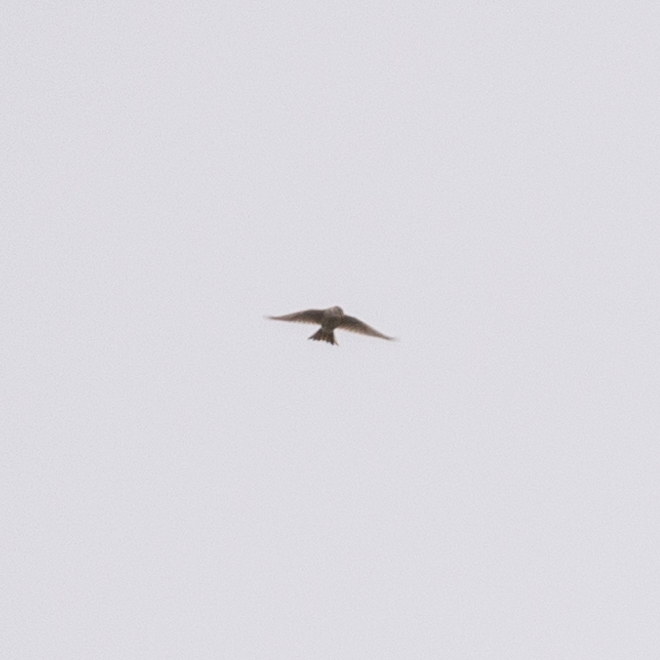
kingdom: Animalia
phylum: Chordata
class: Aves
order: Passeriformes
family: Alaudidae
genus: Alauda
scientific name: Alauda arvensis
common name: Eurasian skylark
